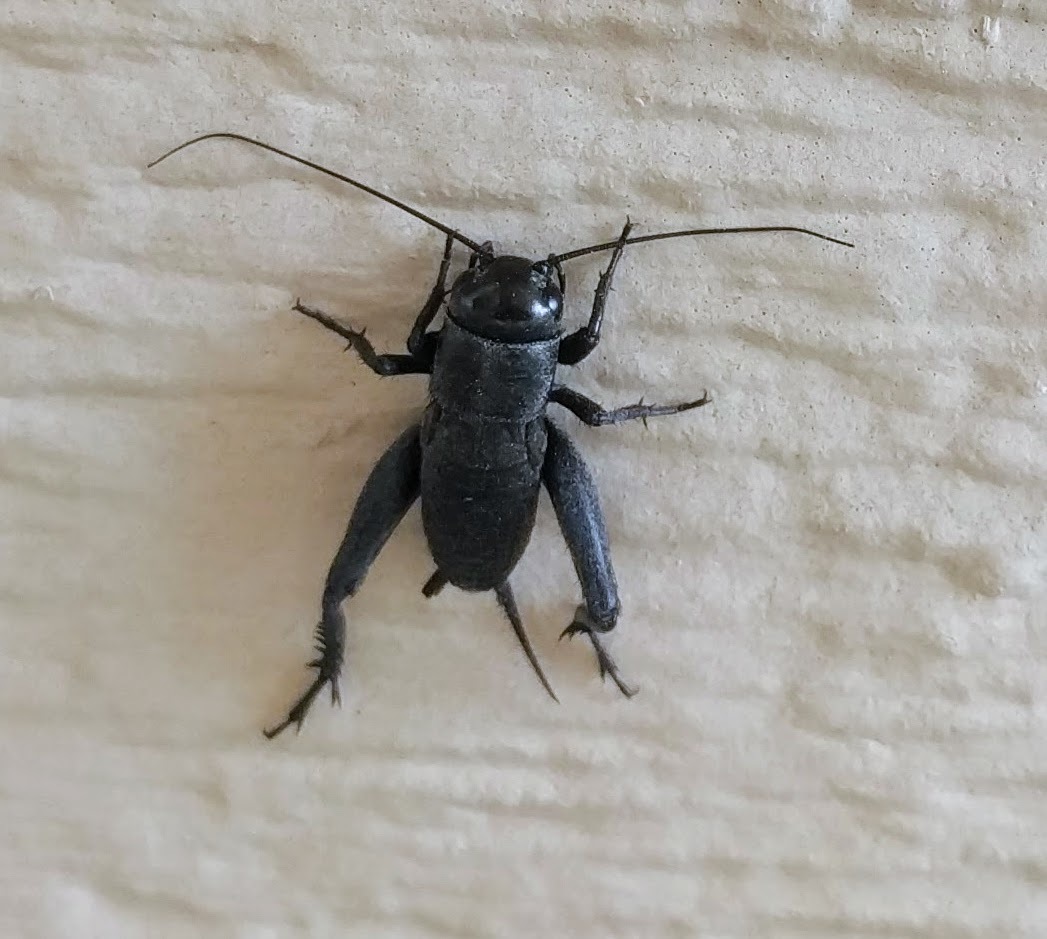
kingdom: Animalia
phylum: Arthropoda
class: Insecta
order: Orthoptera
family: Gryllidae
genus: Gryllus
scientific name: Gryllus veletis
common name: Spring field cricket
